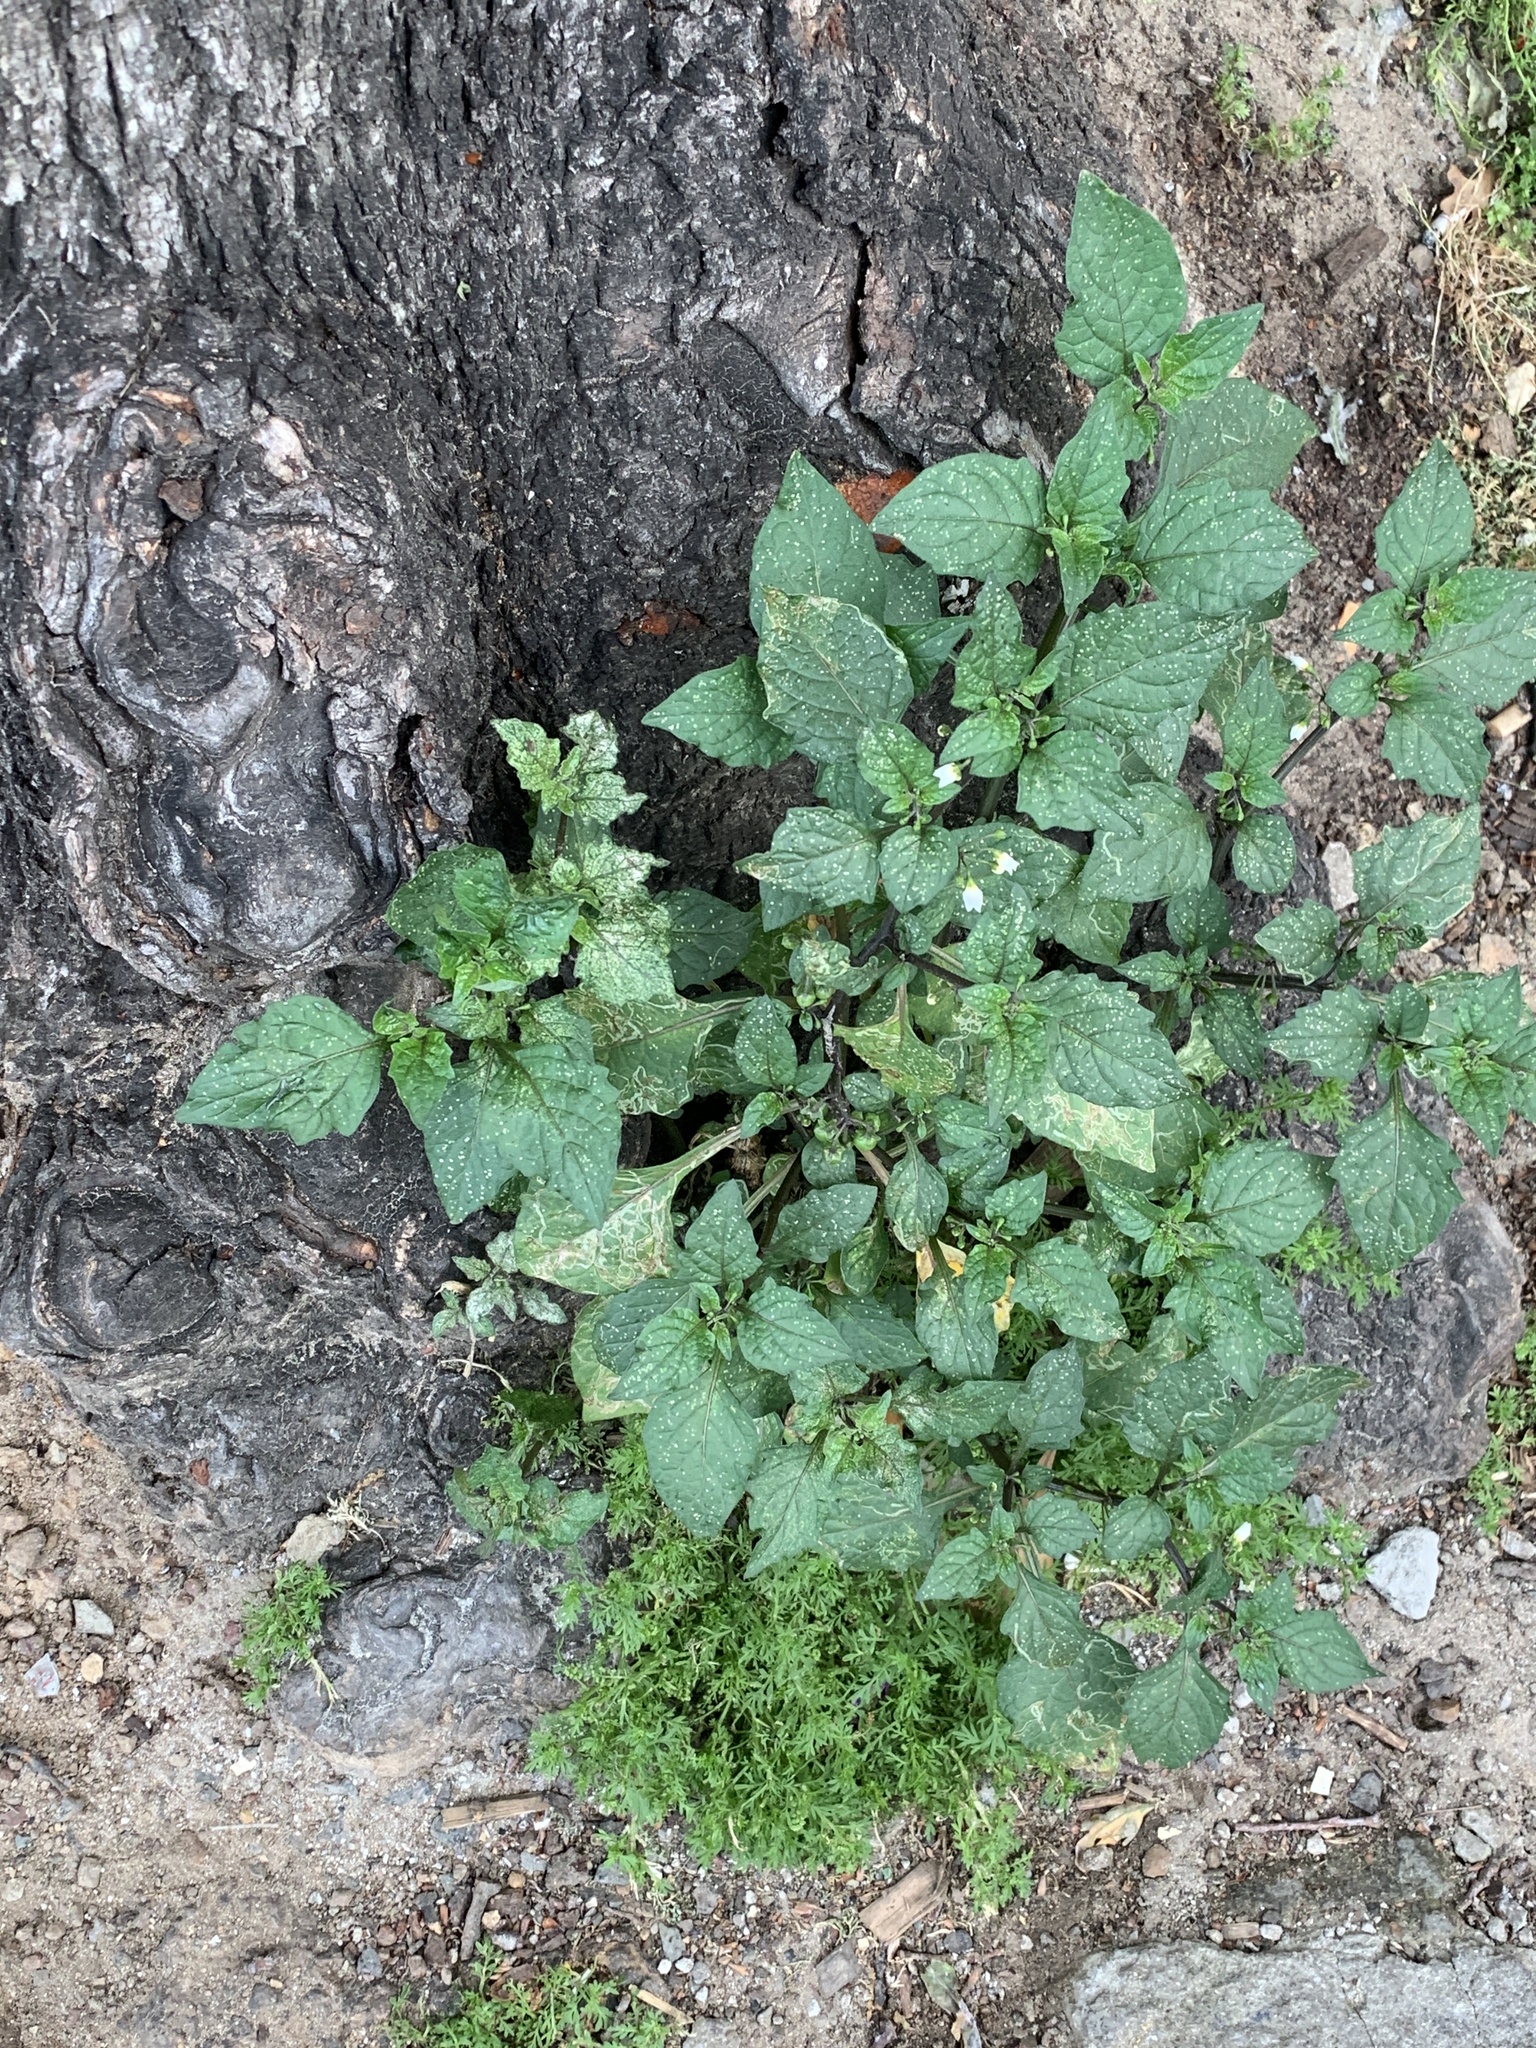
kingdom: Plantae
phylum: Tracheophyta
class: Magnoliopsida
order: Solanales
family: Solanaceae
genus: Solanum
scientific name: Solanum nigrum
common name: Black nightshade
